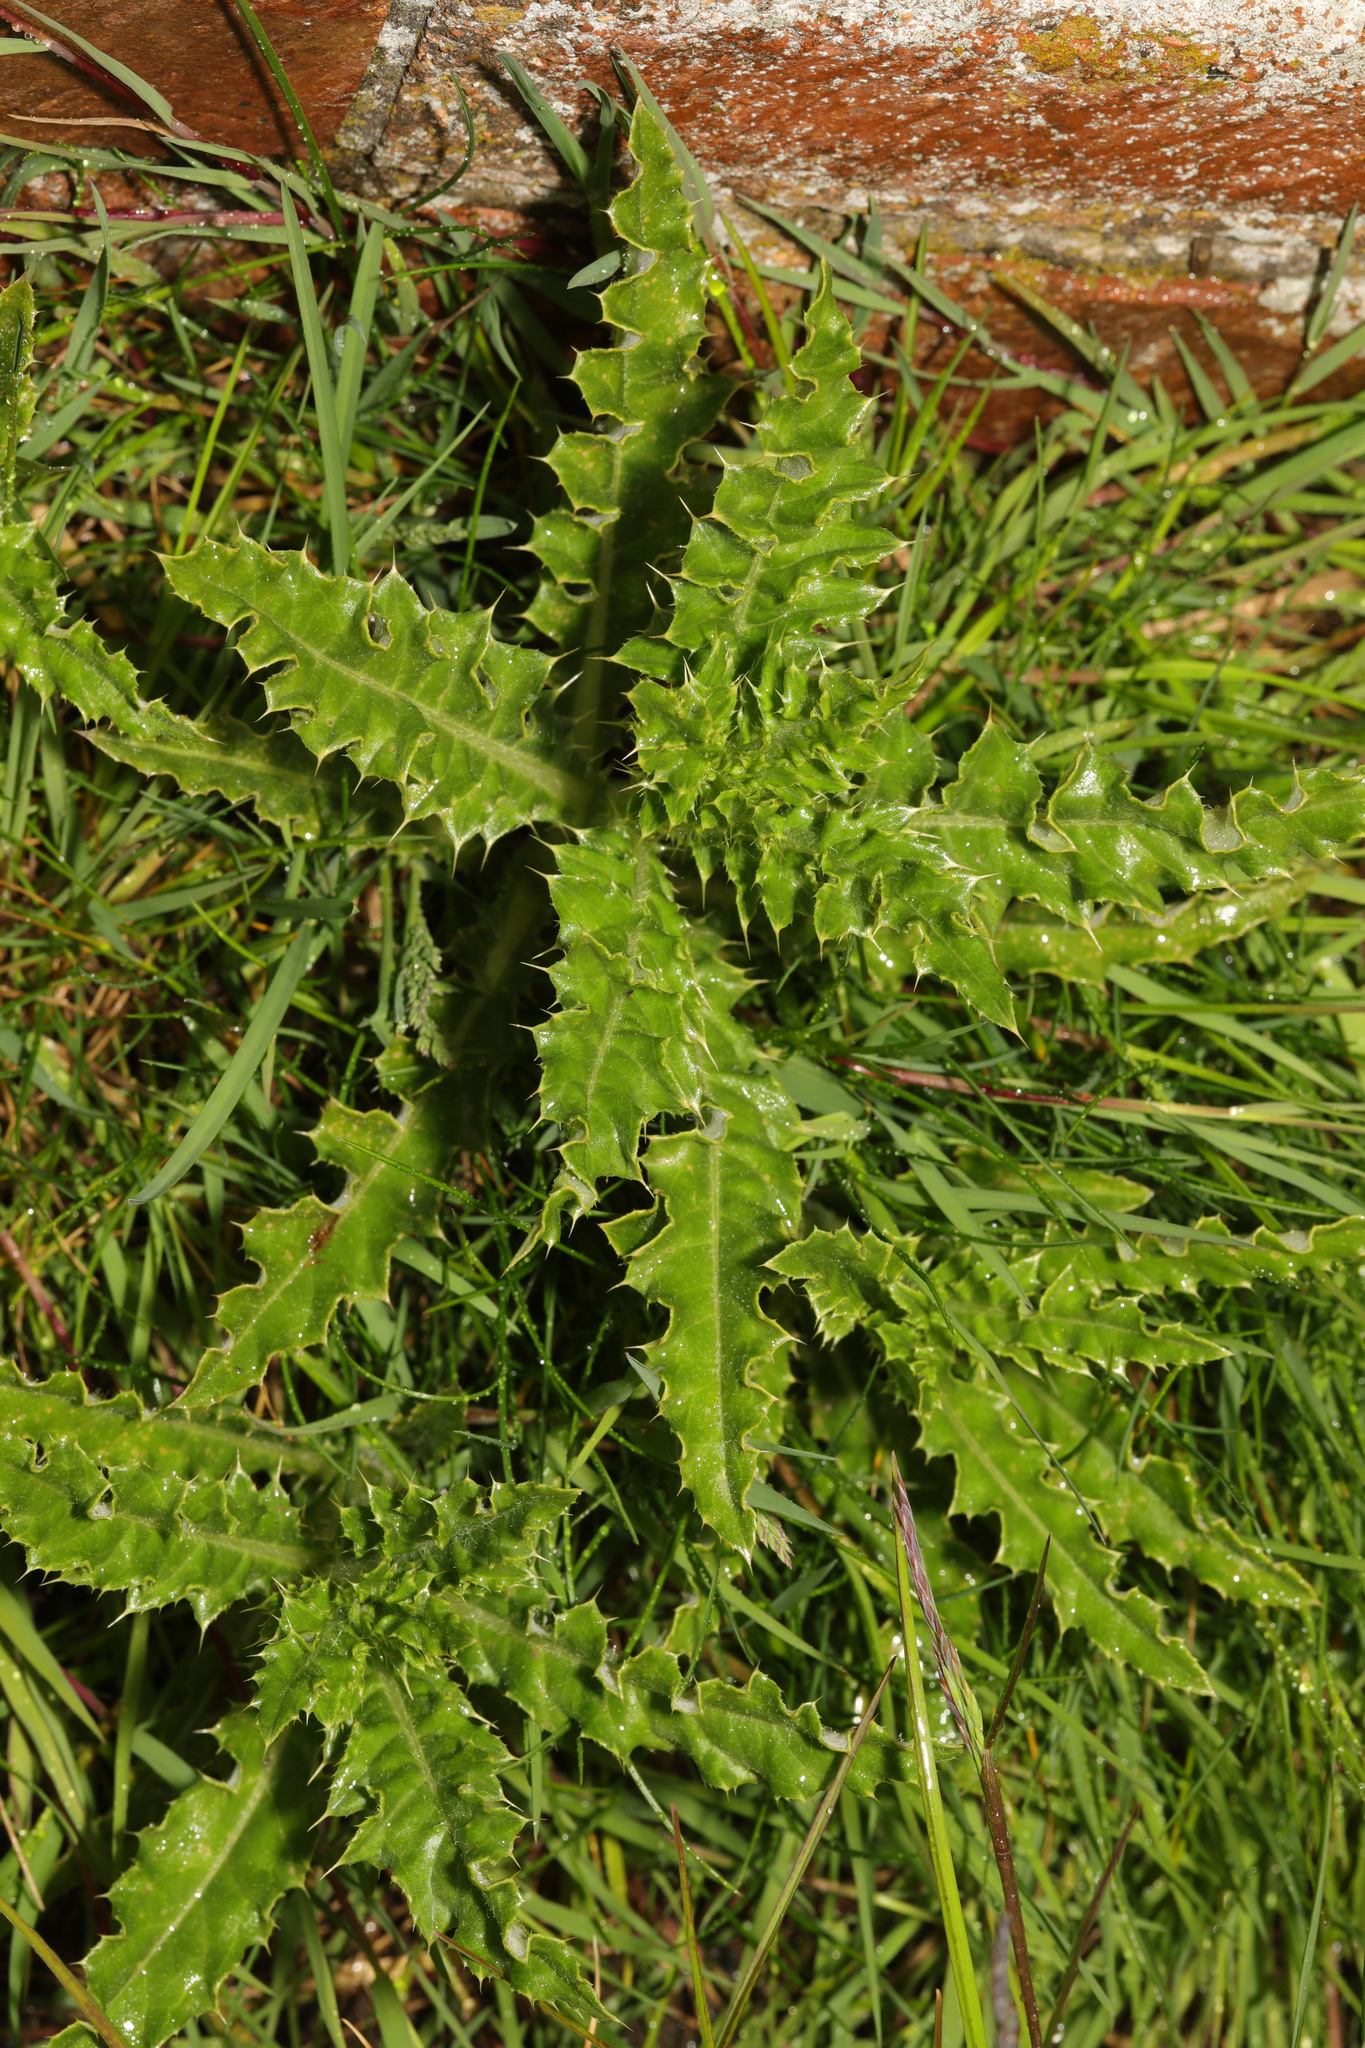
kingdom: Plantae
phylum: Tracheophyta
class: Magnoliopsida
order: Asterales
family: Asteraceae
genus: Cirsium
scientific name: Cirsium arvense
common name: Creeping thistle
